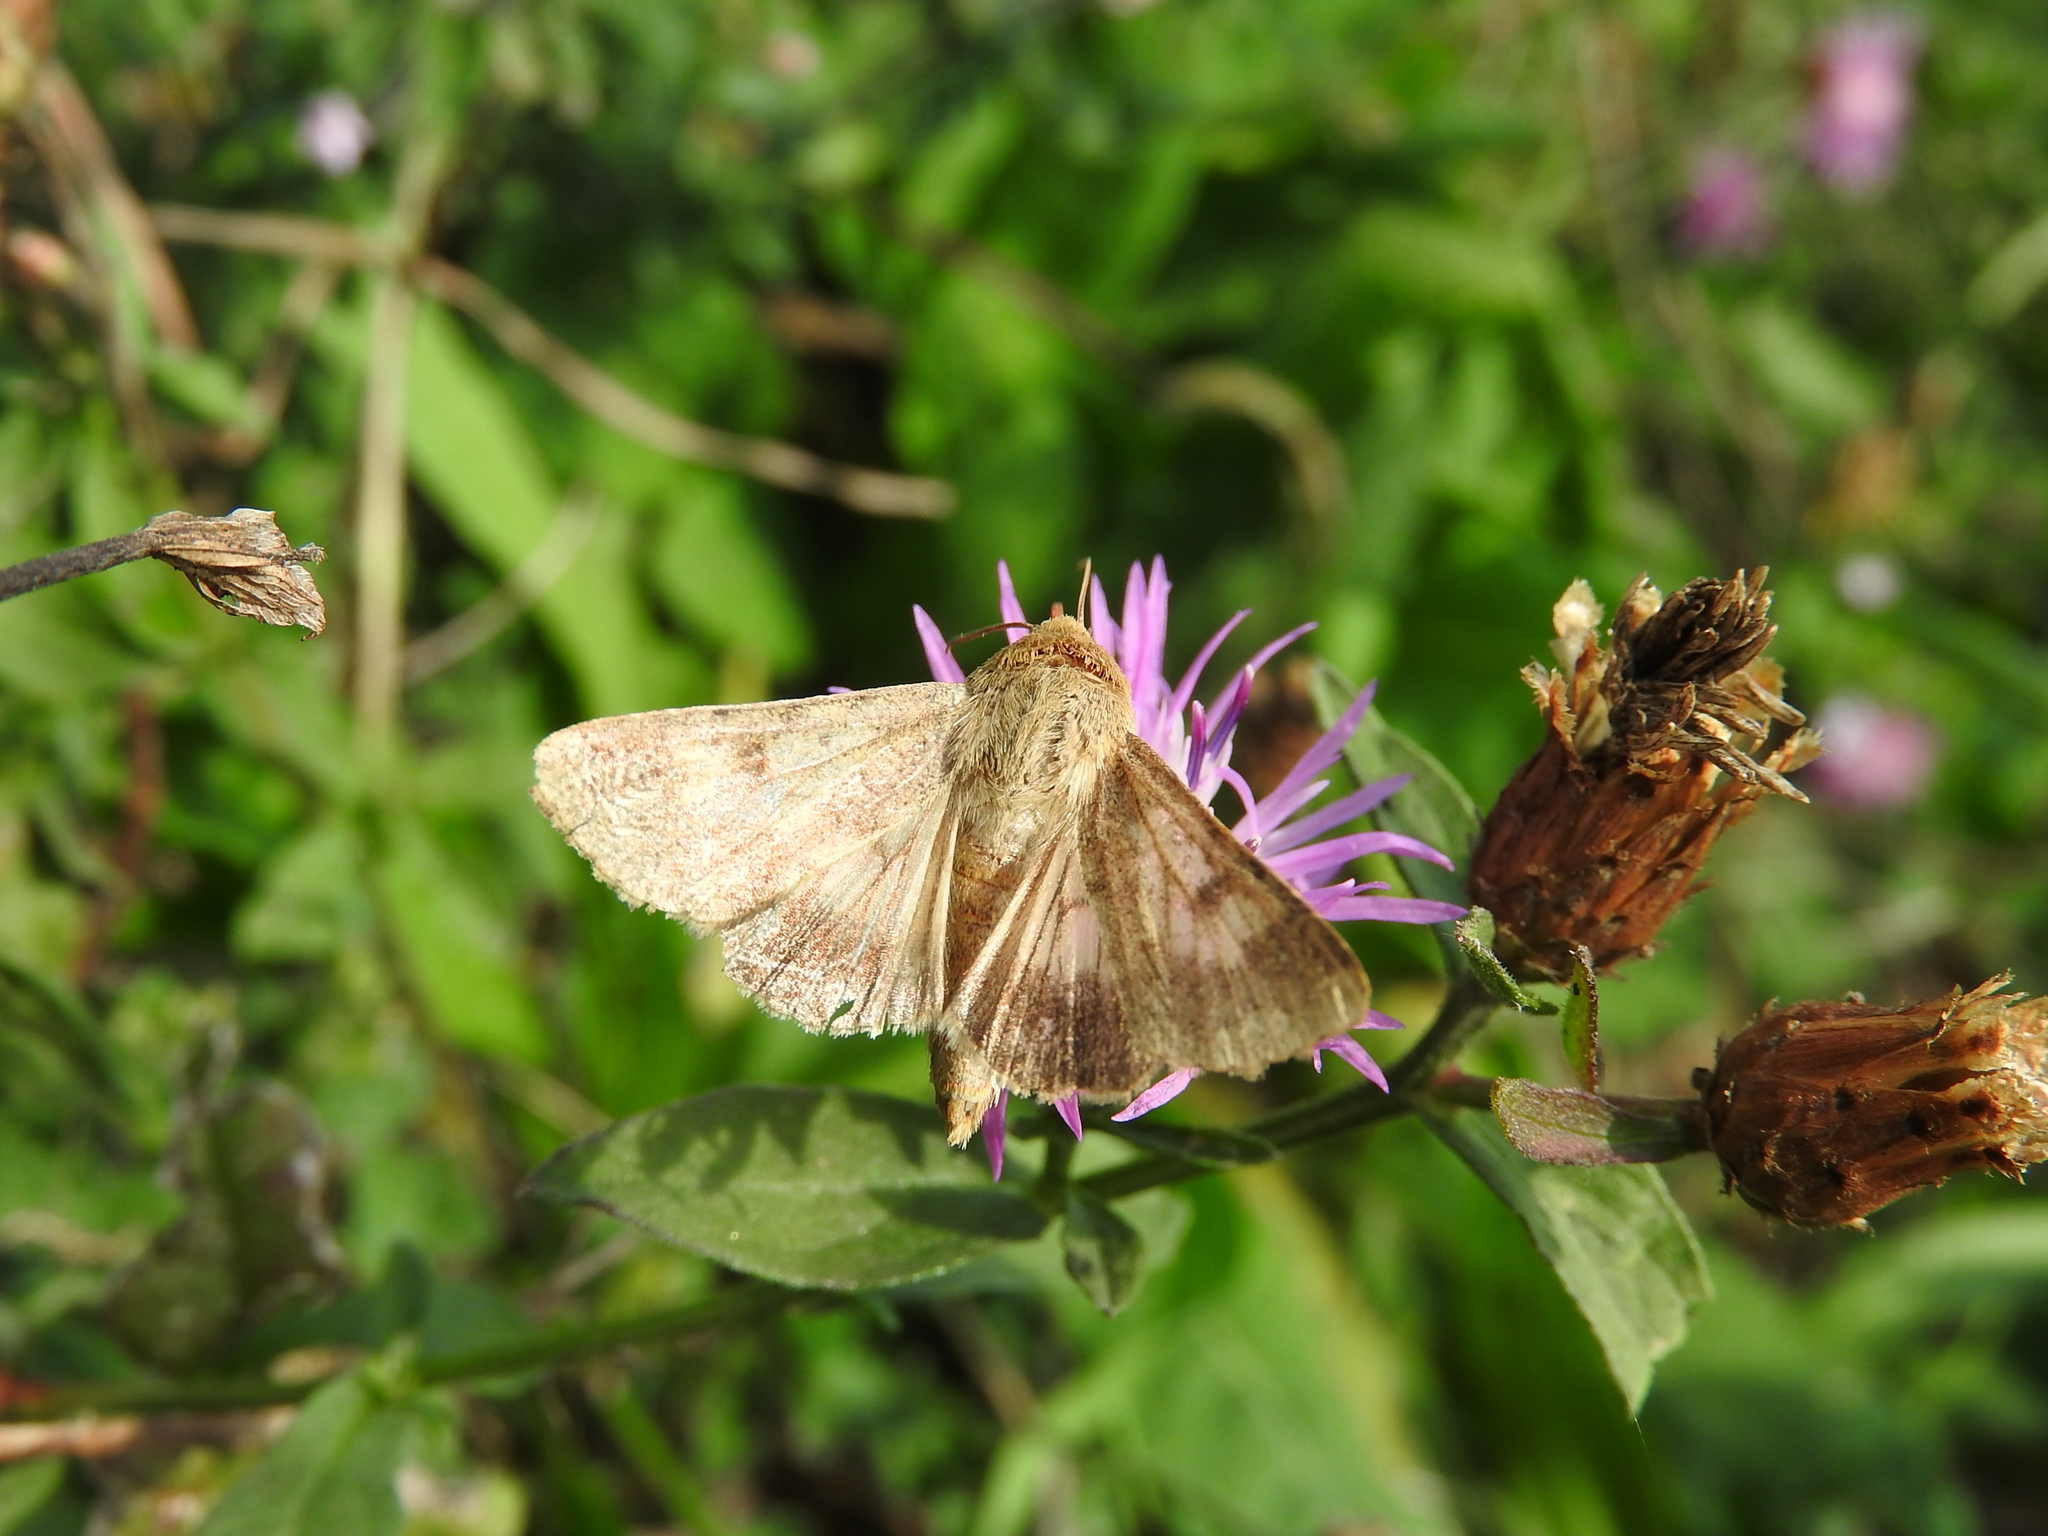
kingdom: Animalia
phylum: Arthropoda
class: Insecta
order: Lepidoptera
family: Noctuidae
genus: Helicoverpa
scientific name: Helicoverpa armigera
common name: Cotton bollworm
